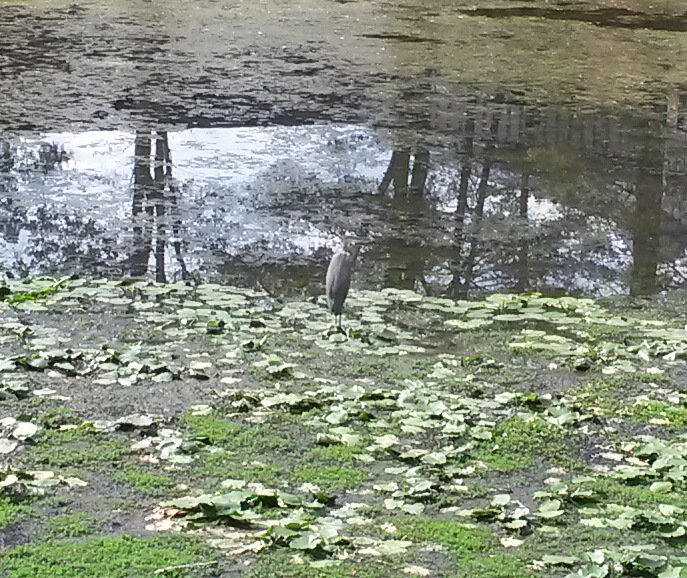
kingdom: Animalia
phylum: Chordata
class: Aves
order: Pelecaniformes
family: Ardeidae
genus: Ardea
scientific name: Ardea herodias
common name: Great blue heron
